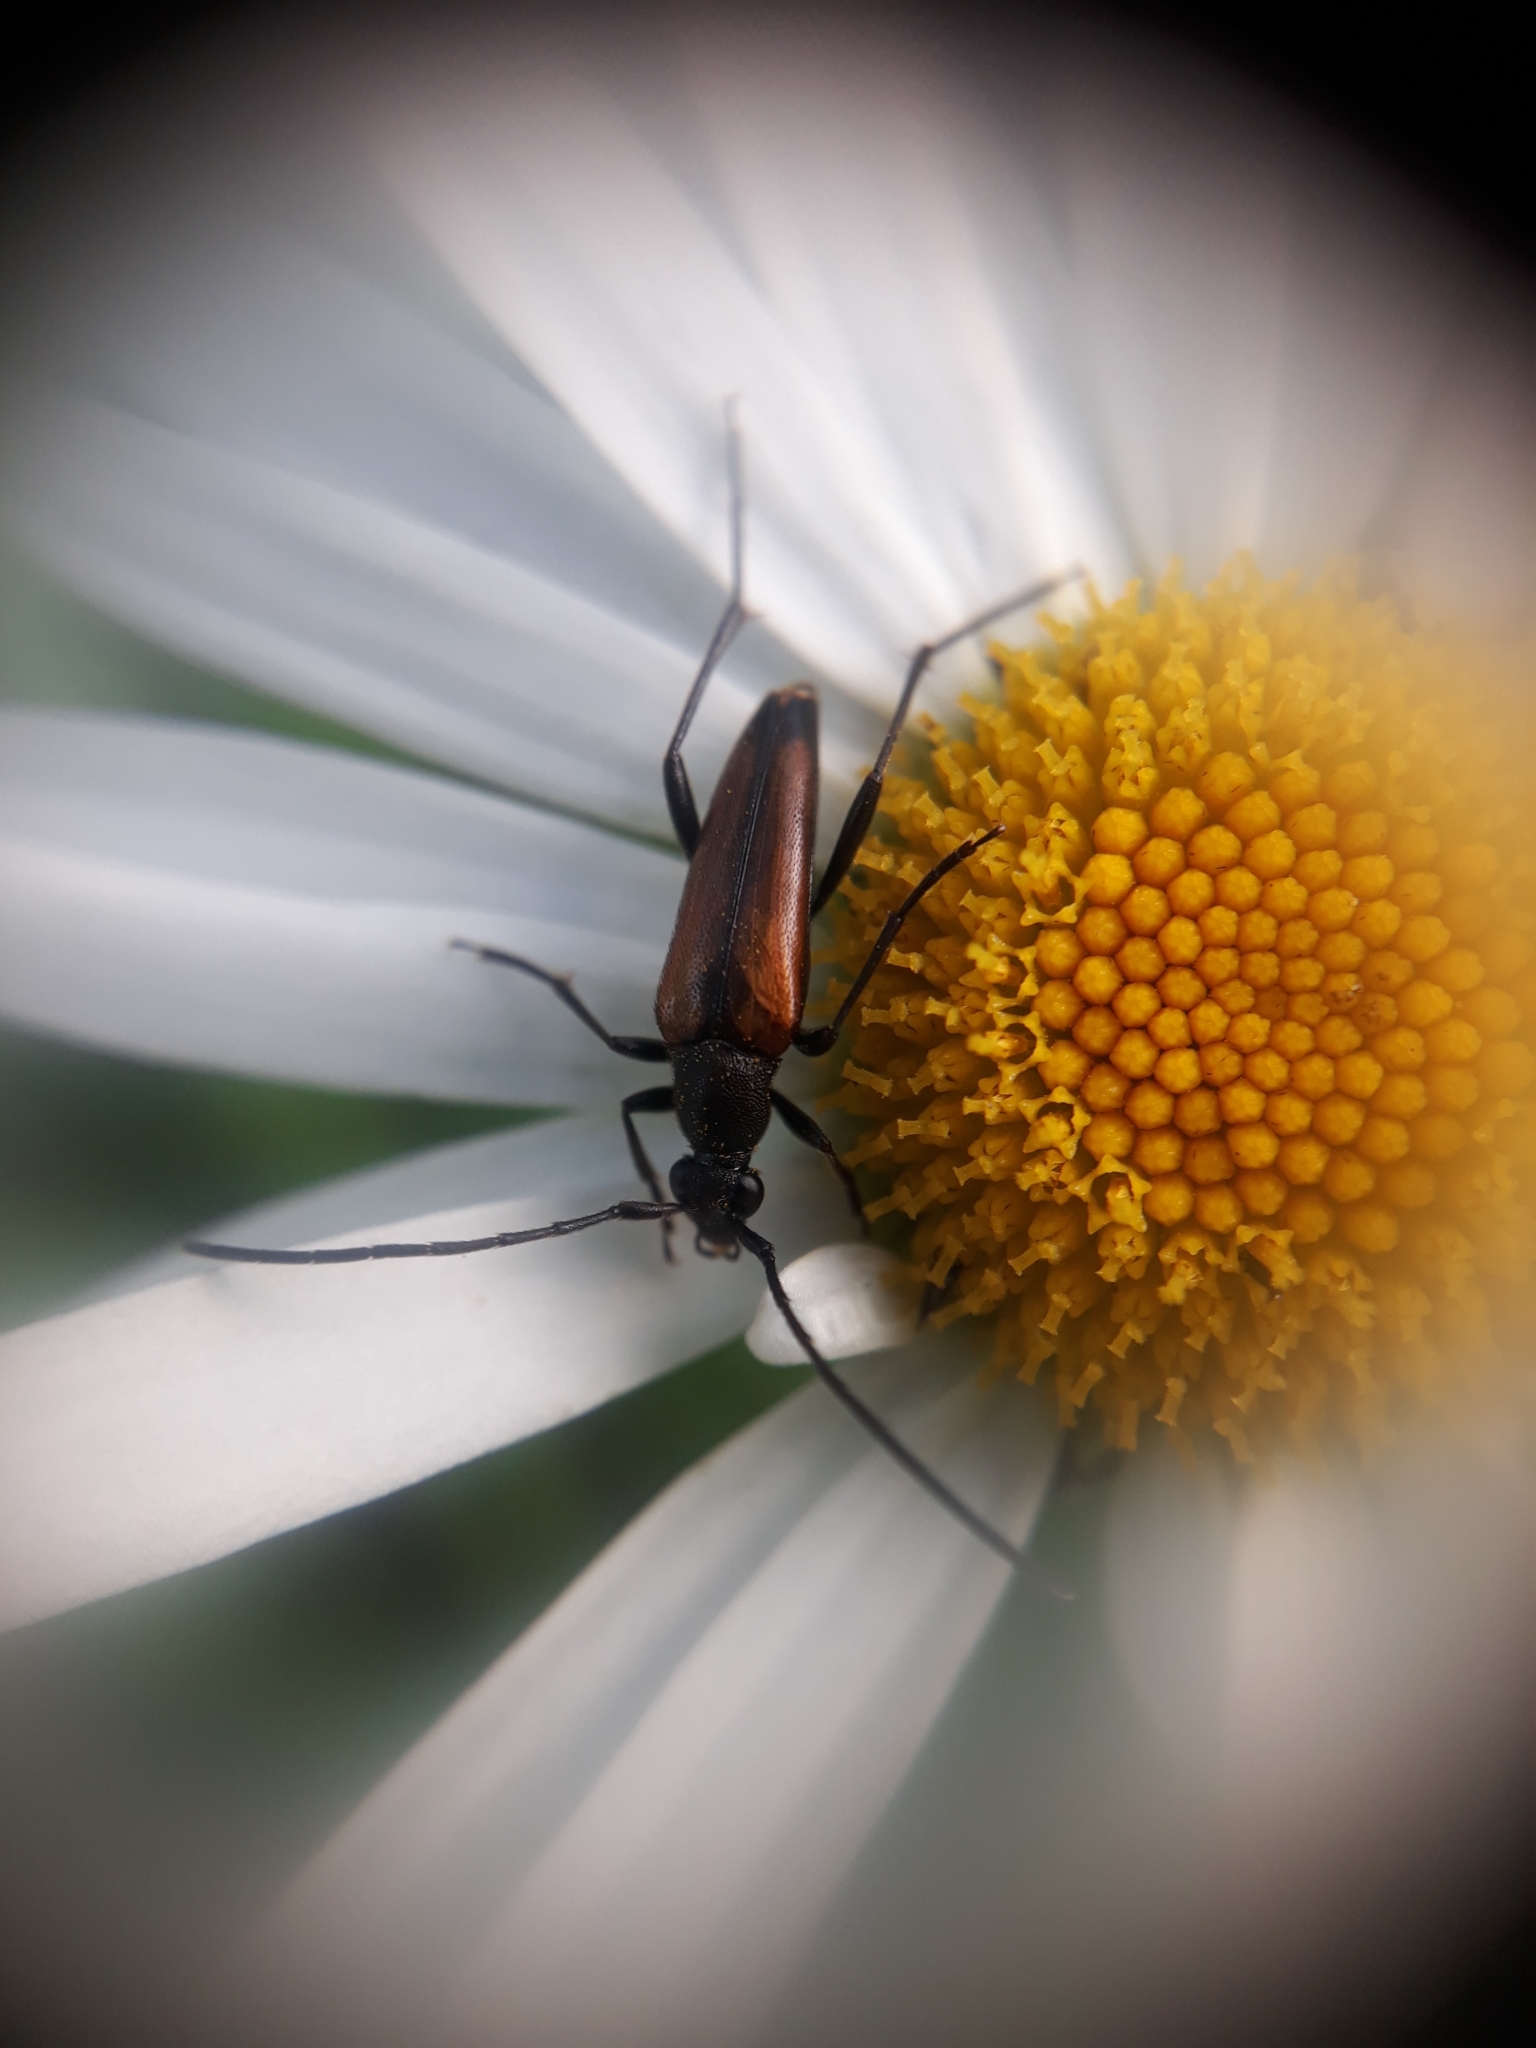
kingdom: Animalia
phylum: Arthropoda
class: Insecta
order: Coleoptera
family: Cerambycidae
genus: Stenurella
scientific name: Stenurella melanura
